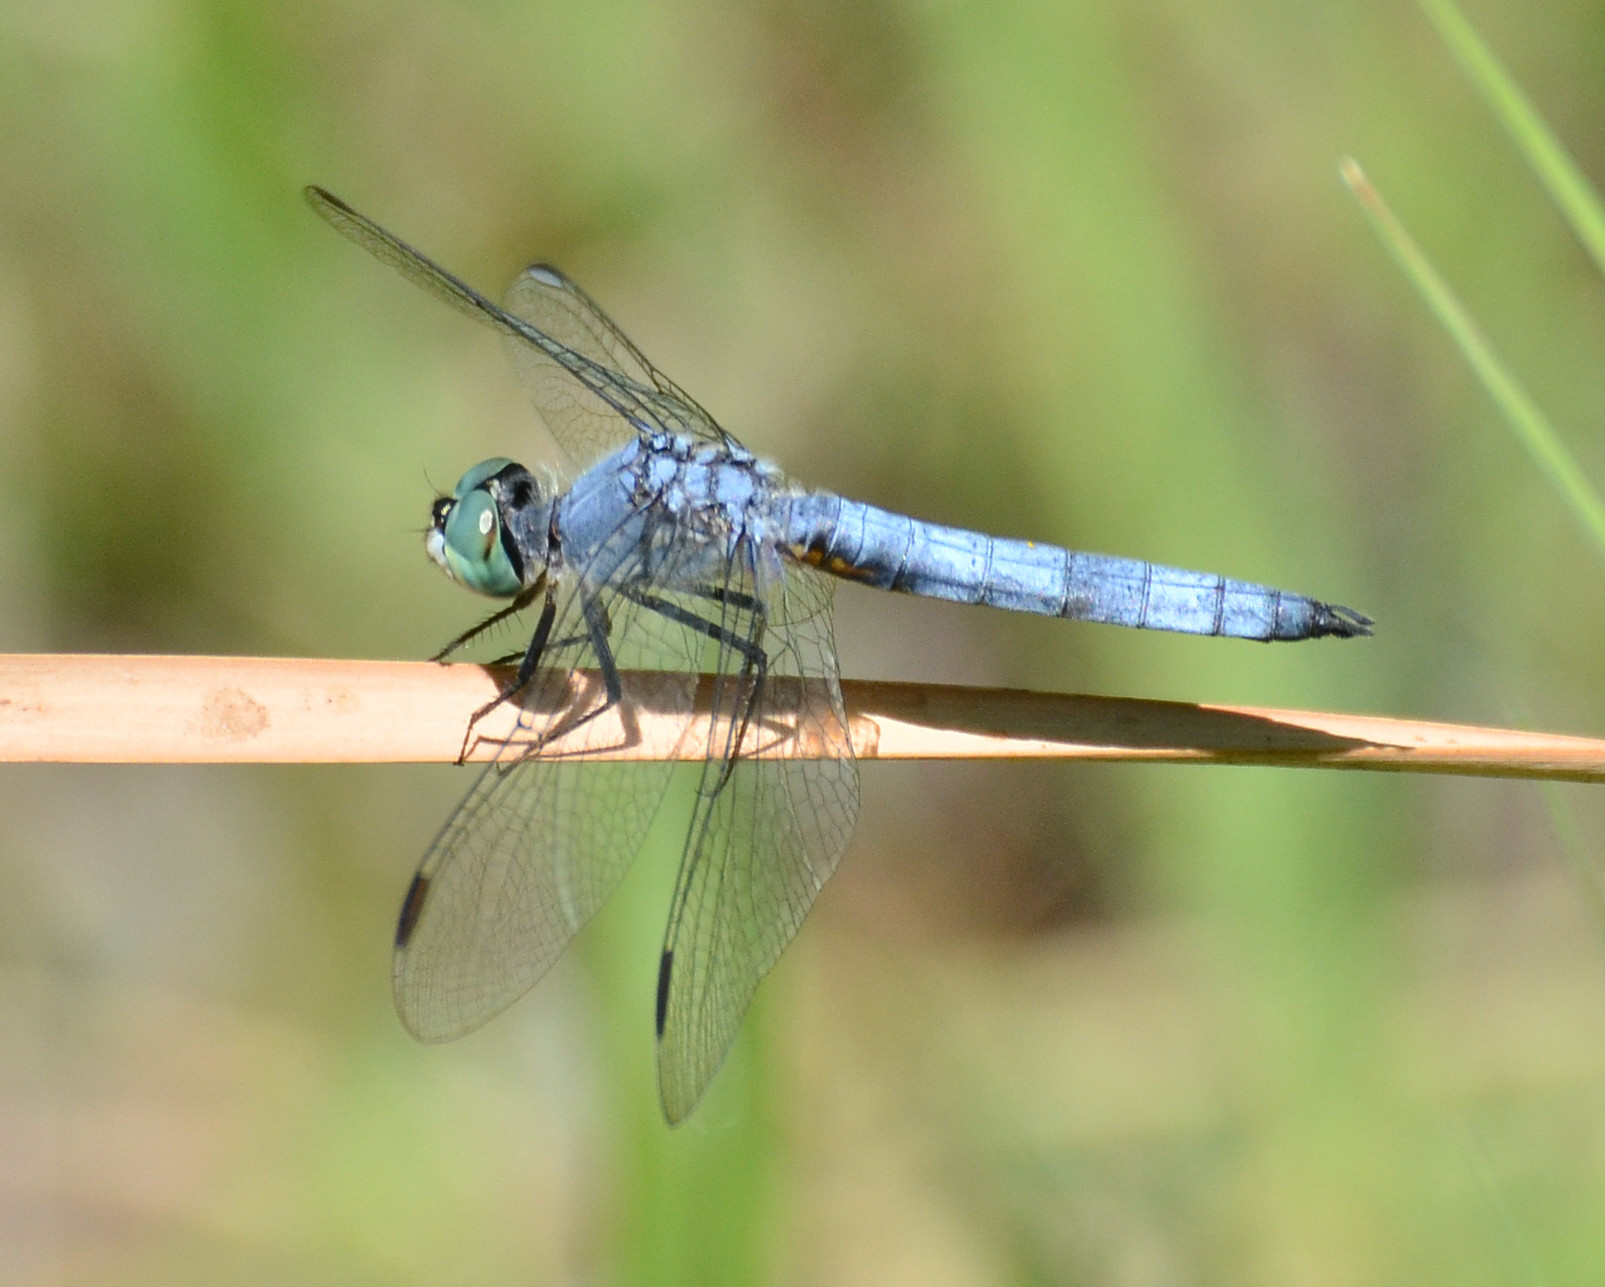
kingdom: Animalia
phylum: Arthropoda
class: Insecta
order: Odonata
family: Libellulidae
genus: Pachydiplax
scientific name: Pachydiplax longipennis
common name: Blue dasher
